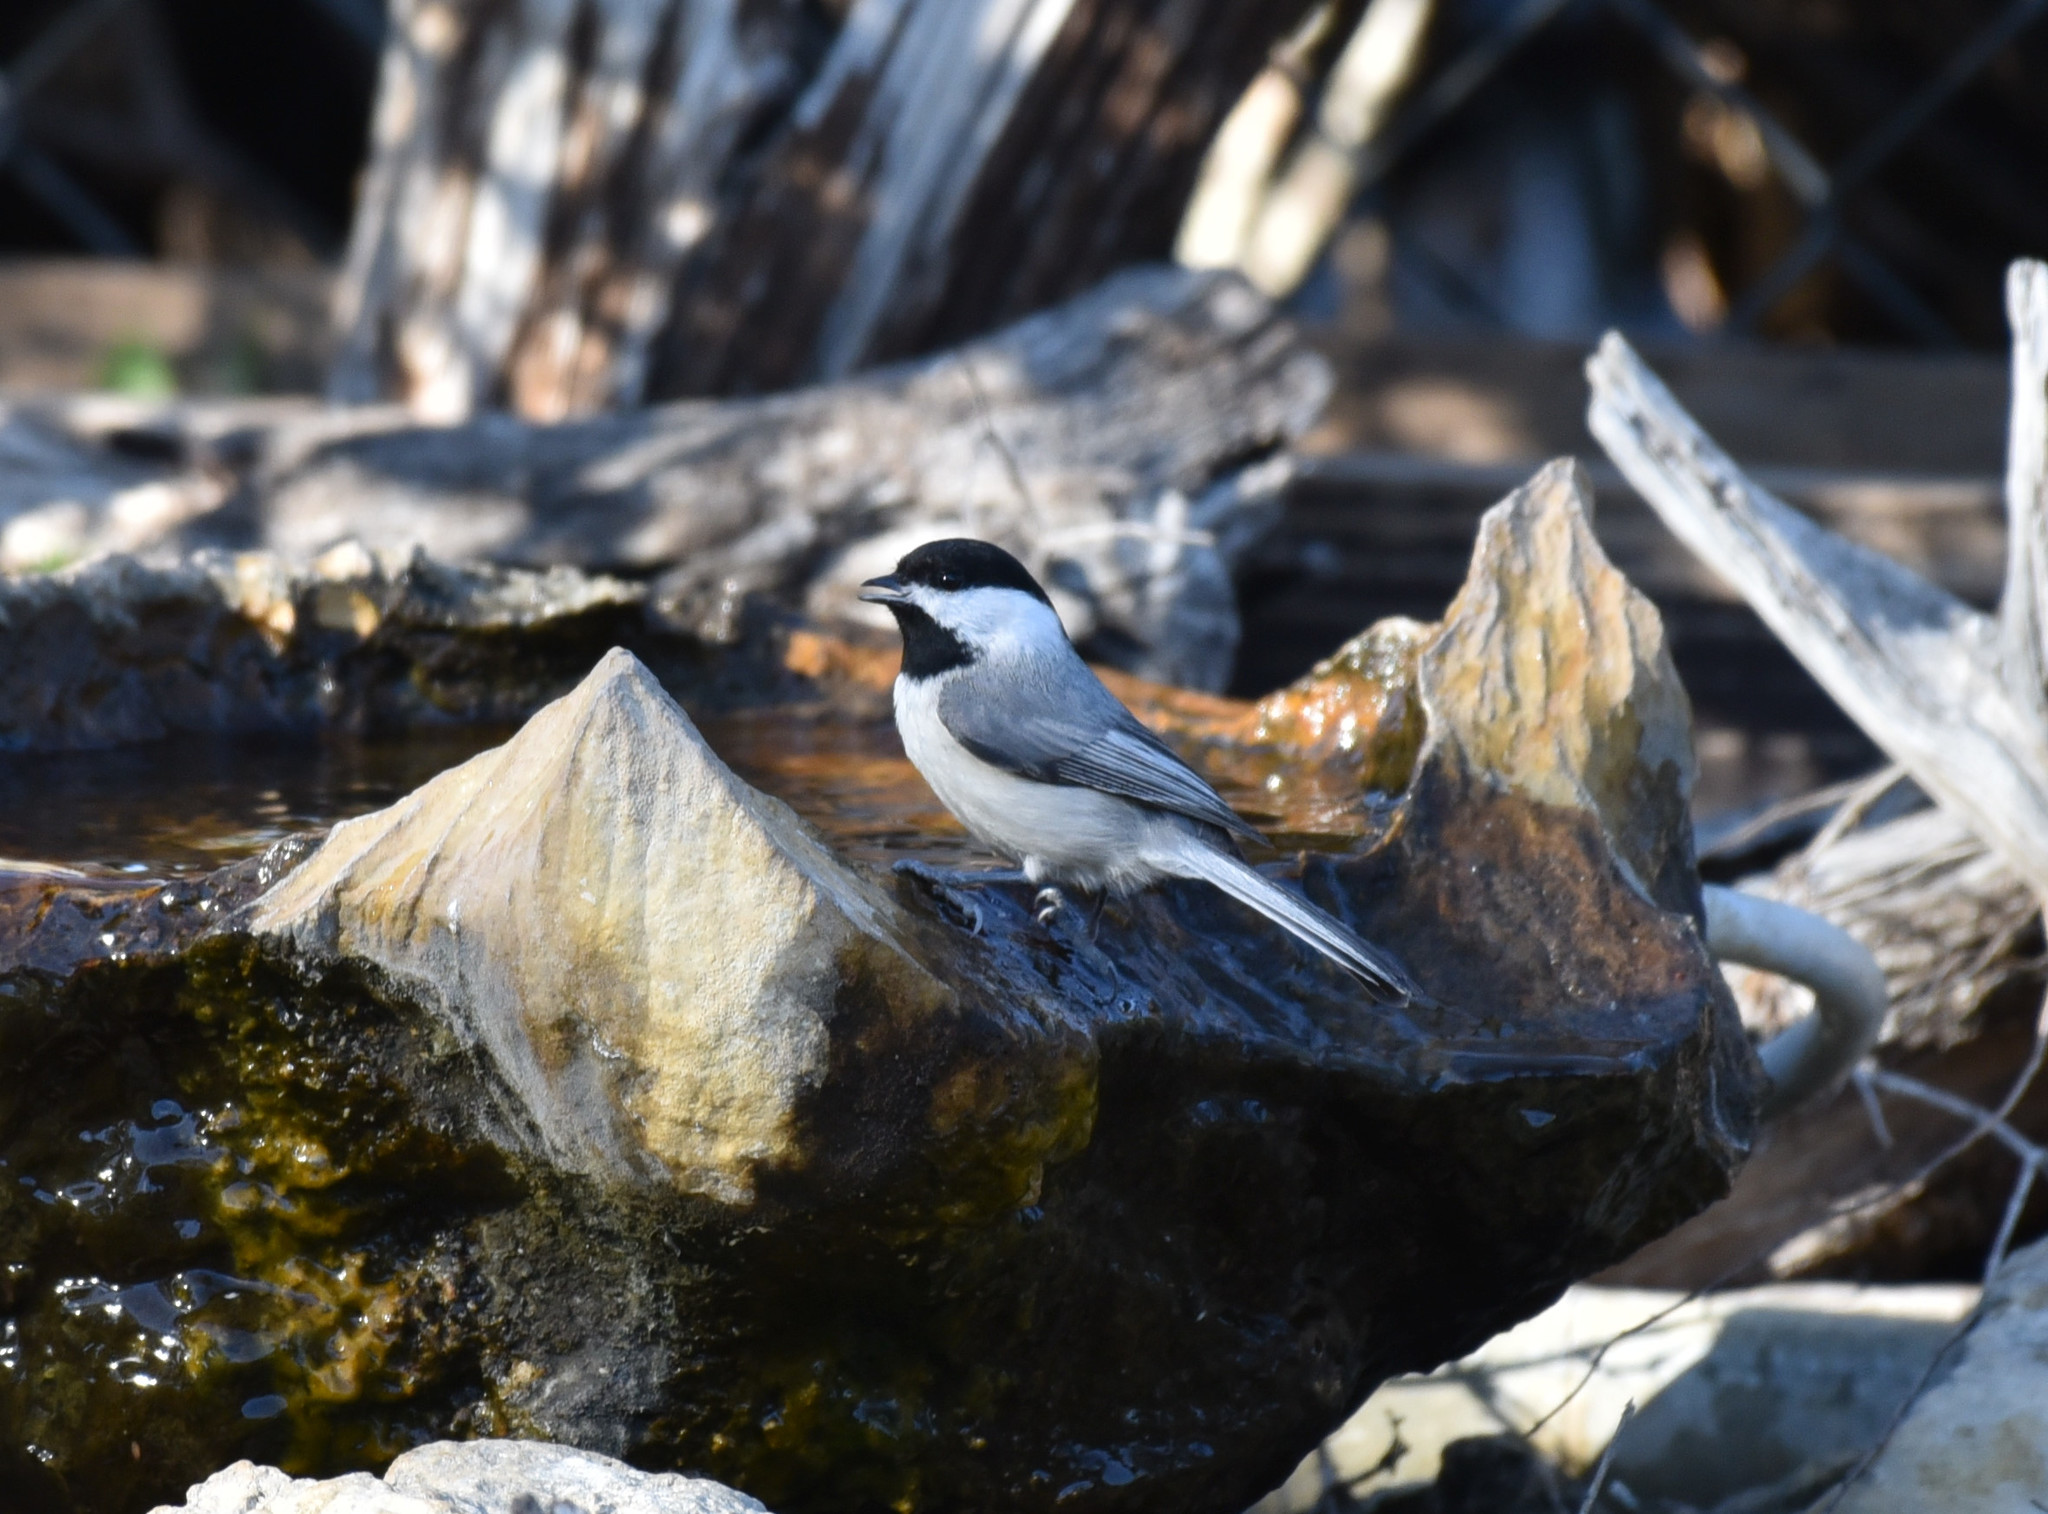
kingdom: Animalia
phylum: Chordata
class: Aves
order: Passeriformes
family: Paridae
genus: Poecile
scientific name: Poecile carolinensis
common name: Carolina chickadee
